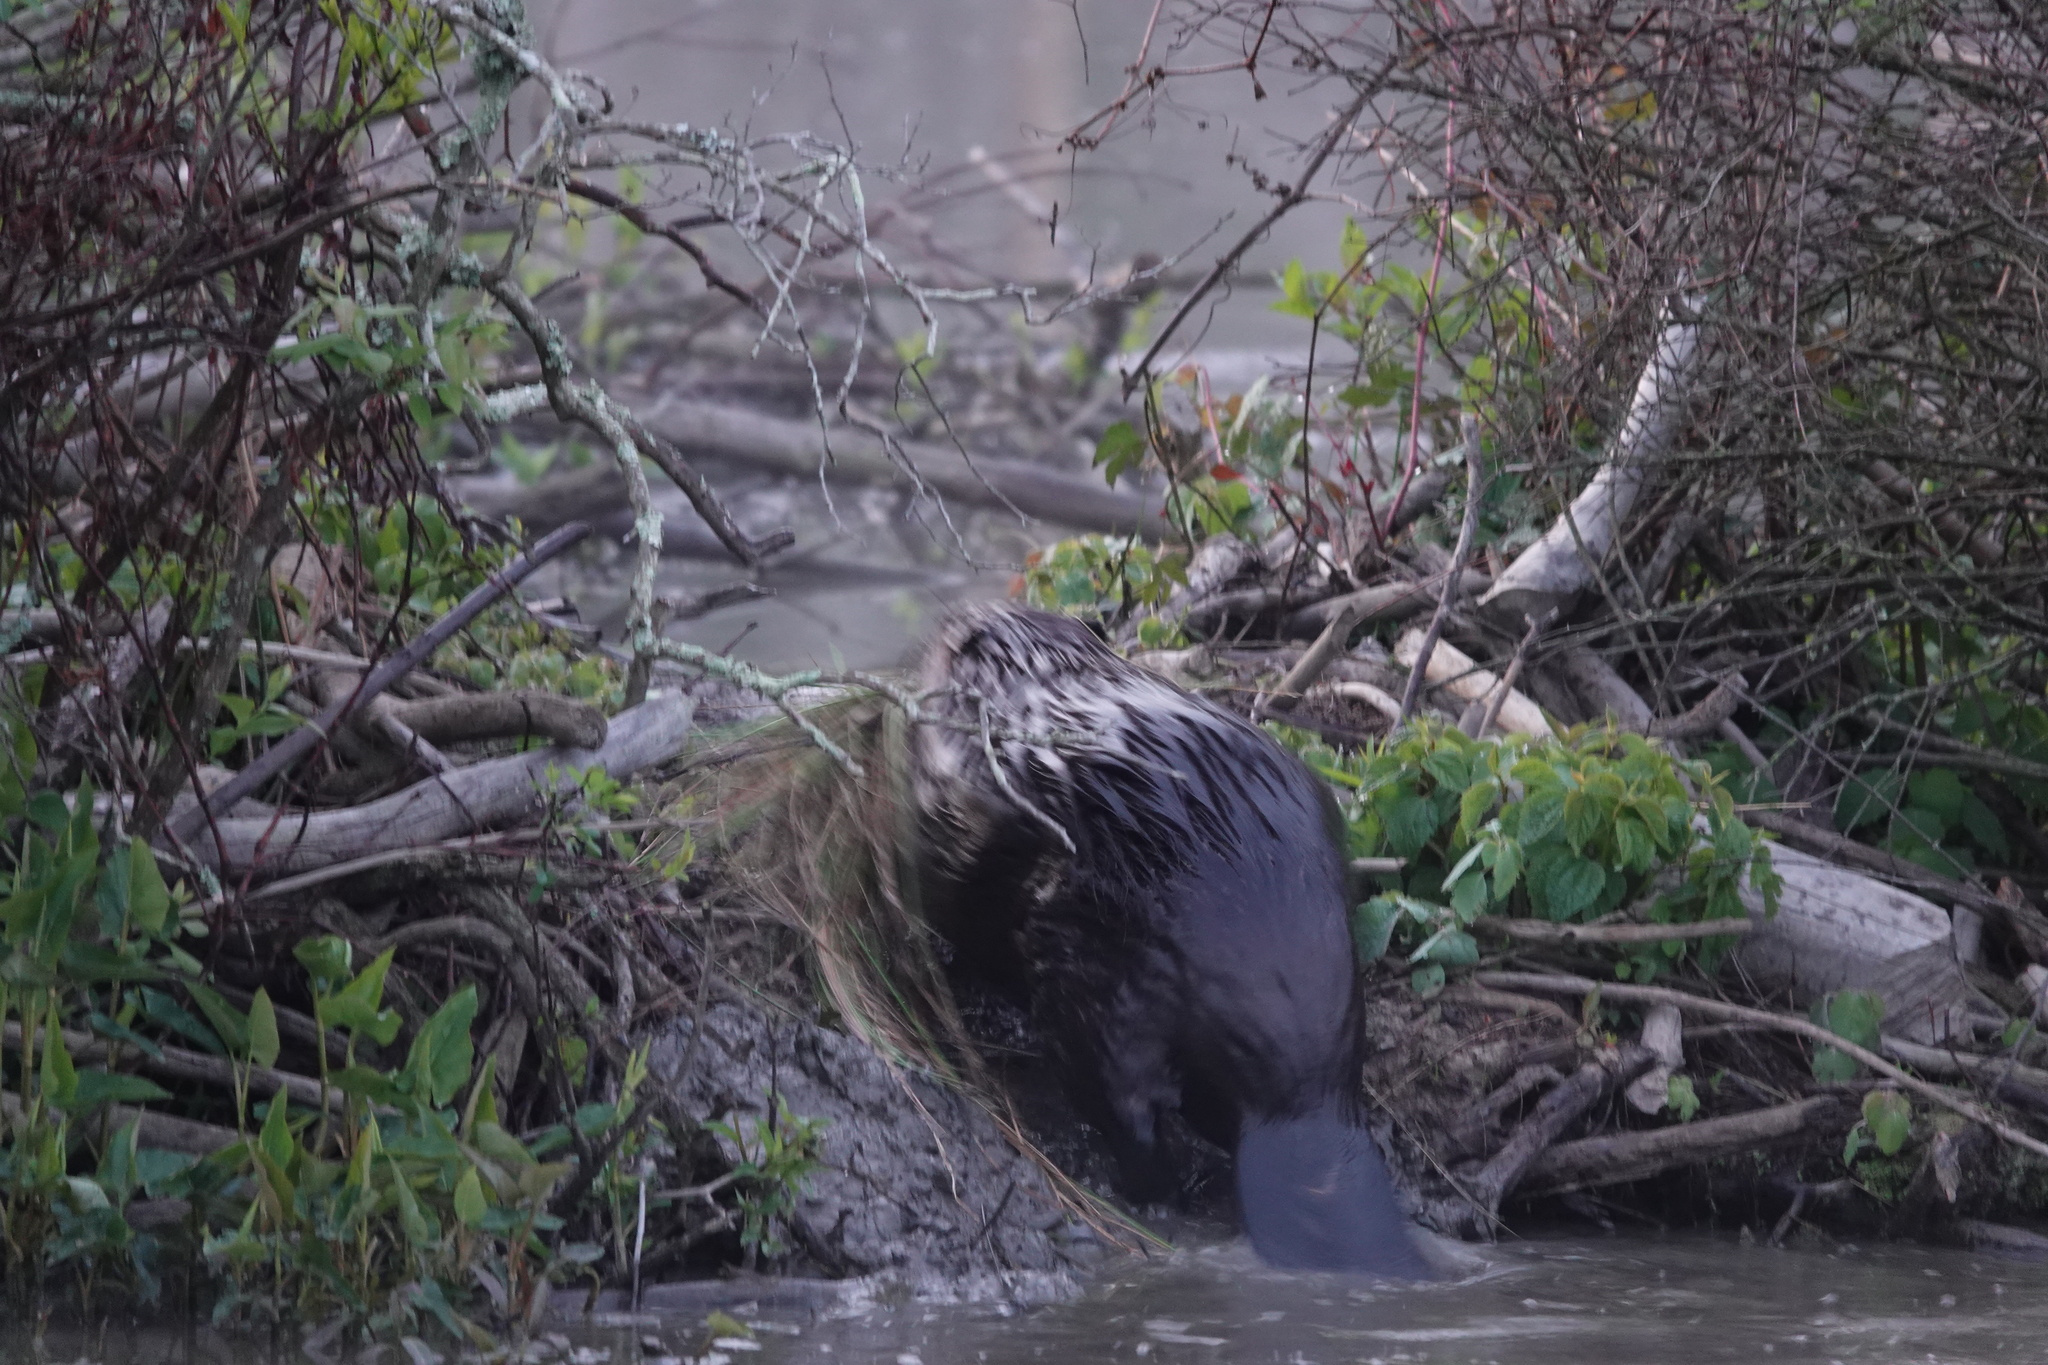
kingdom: Animalia
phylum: Chordata
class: Mammalia
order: Rodentia
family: Castoridae
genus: Castor
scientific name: Castor canadensis
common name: American beaver
